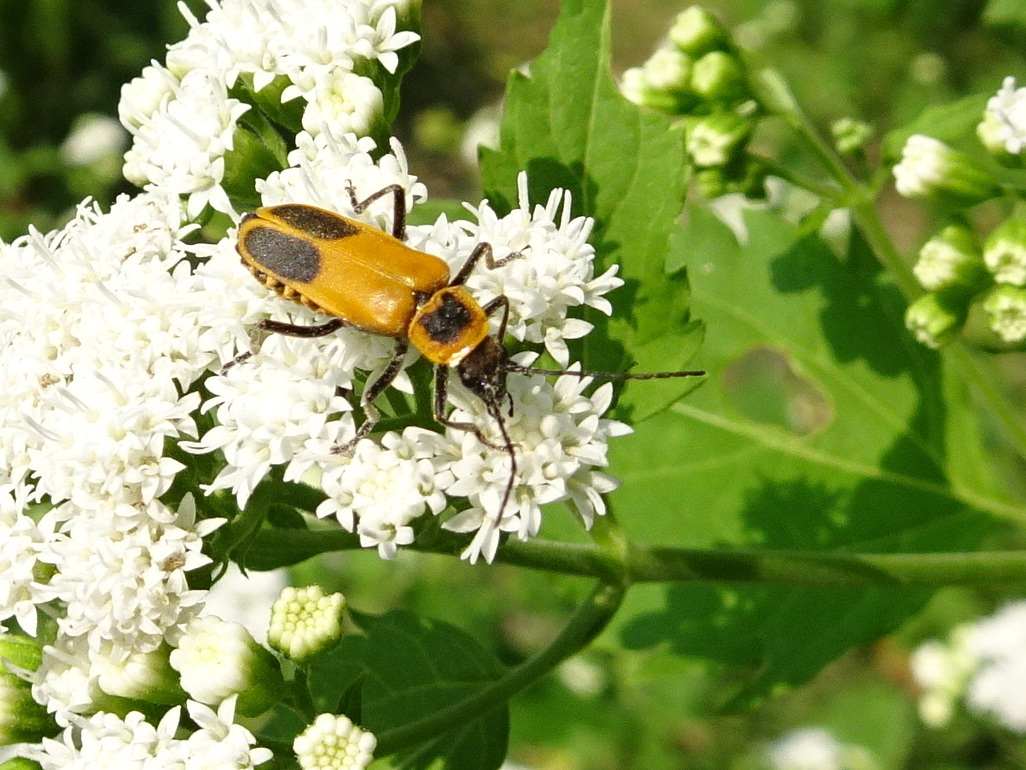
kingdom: Animalia
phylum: Arthropoda
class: Insecta
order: Coleoptera
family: Cantharidae
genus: Chauliognathus
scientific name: Chauliognathus pensylvanicus
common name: Goldenrod soldier beetle
